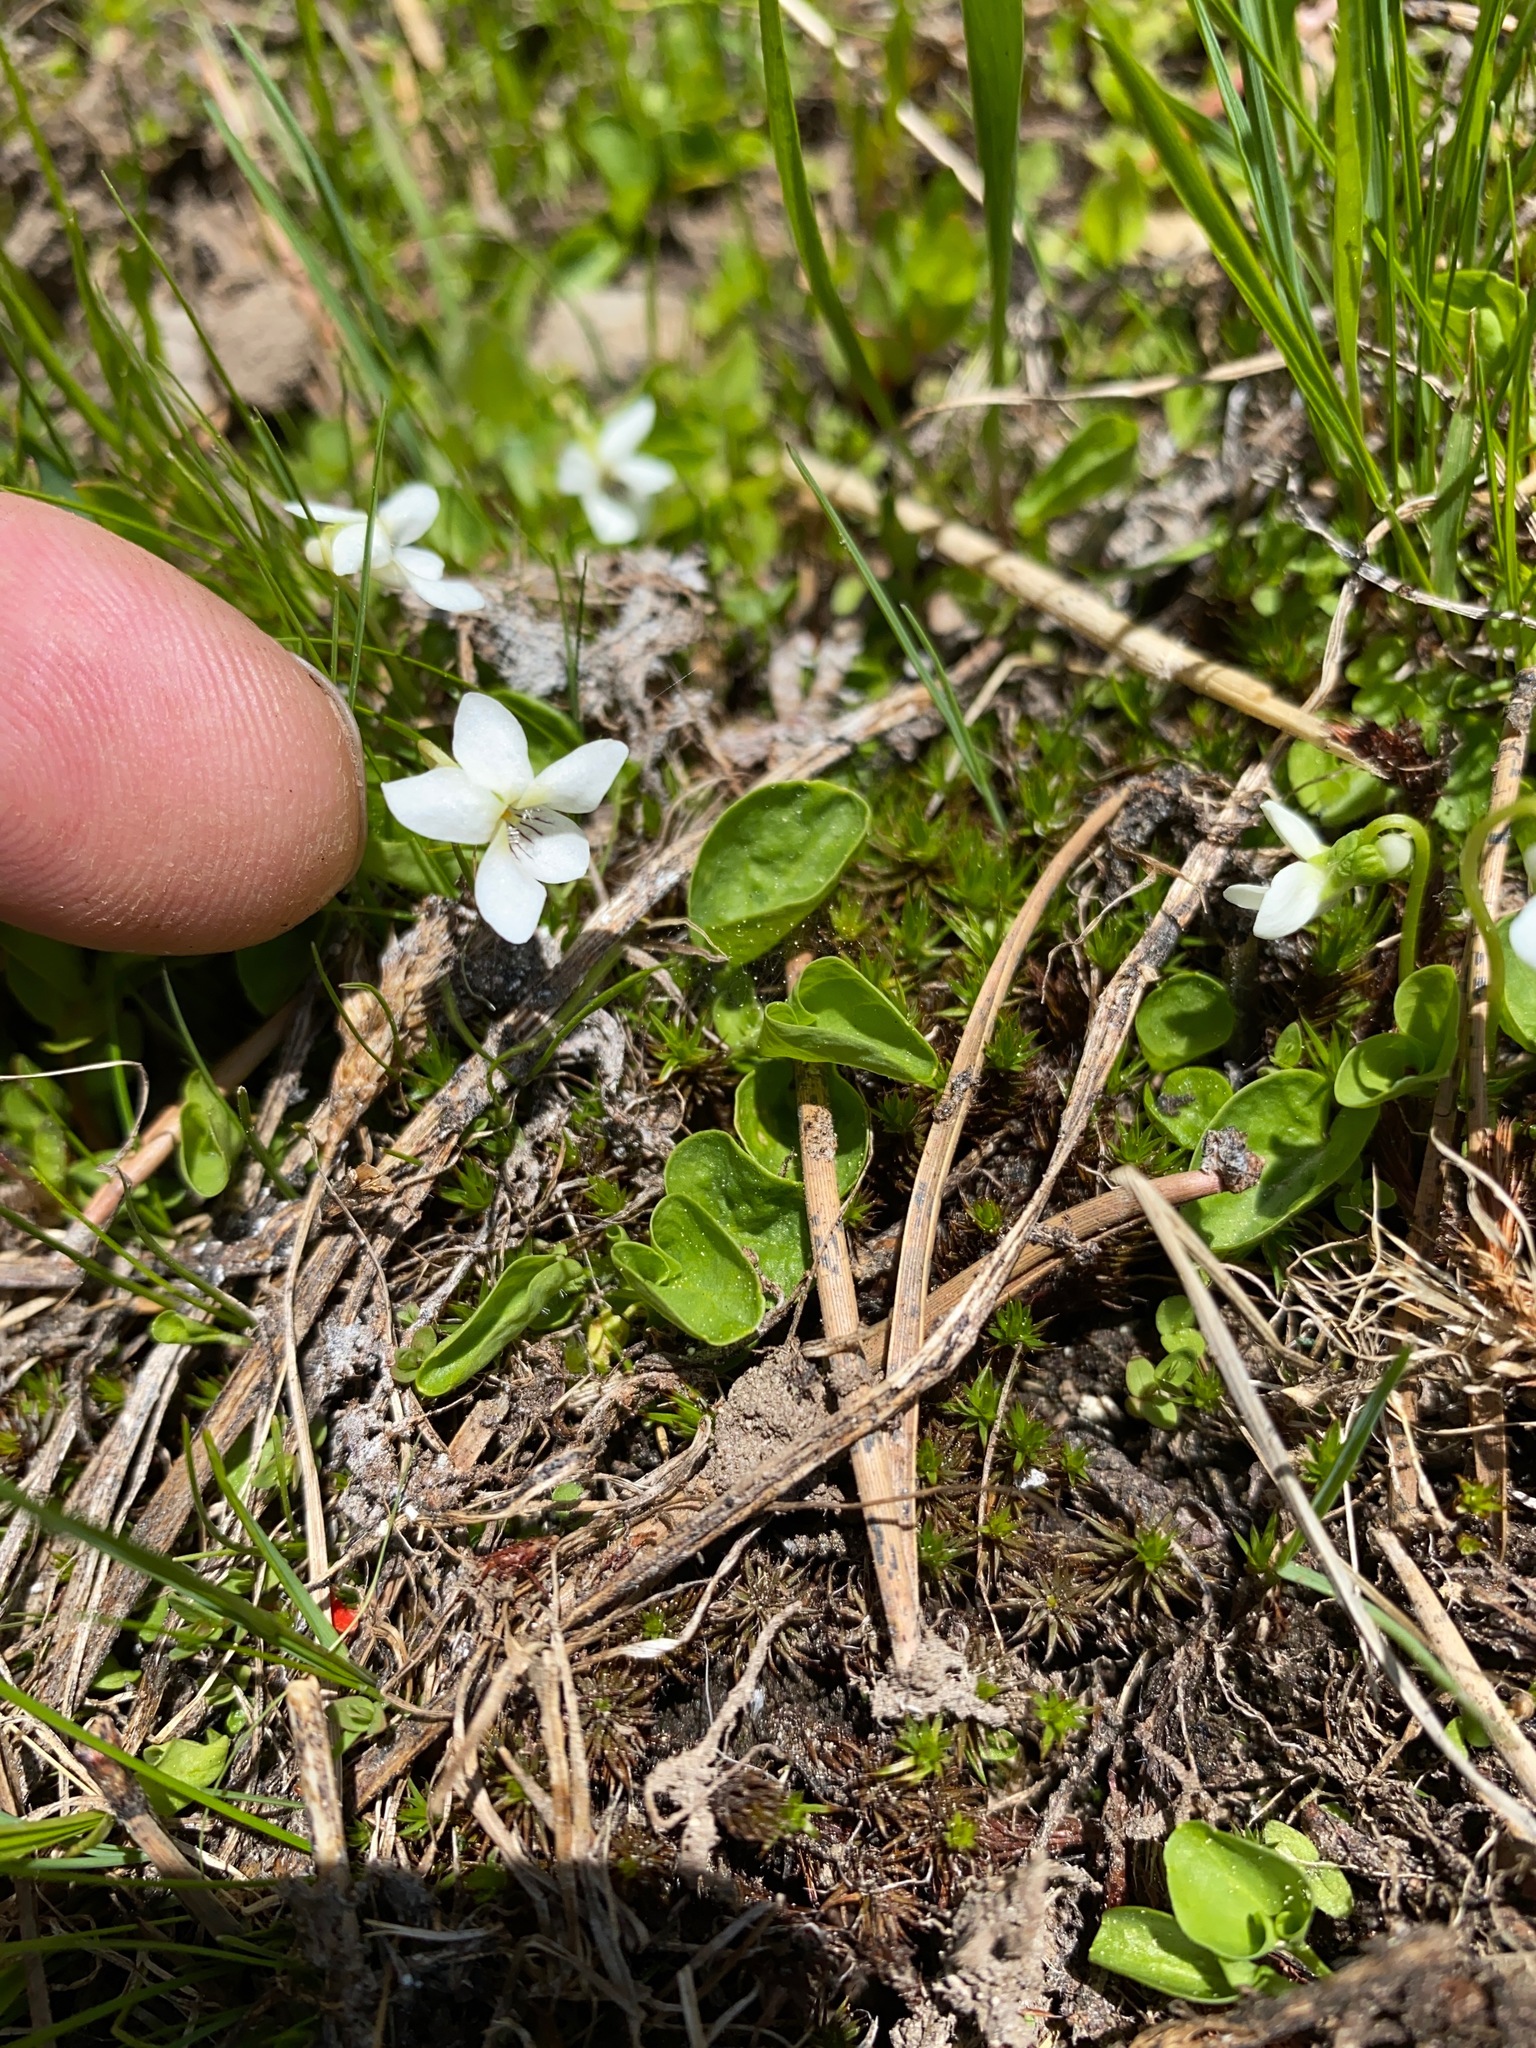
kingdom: Plantae
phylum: Tracheophyta
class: Magnoliopsida
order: Malpighiales
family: Violaceae
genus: Viola
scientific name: Viola macloskeyi
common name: Macloskey's violet
